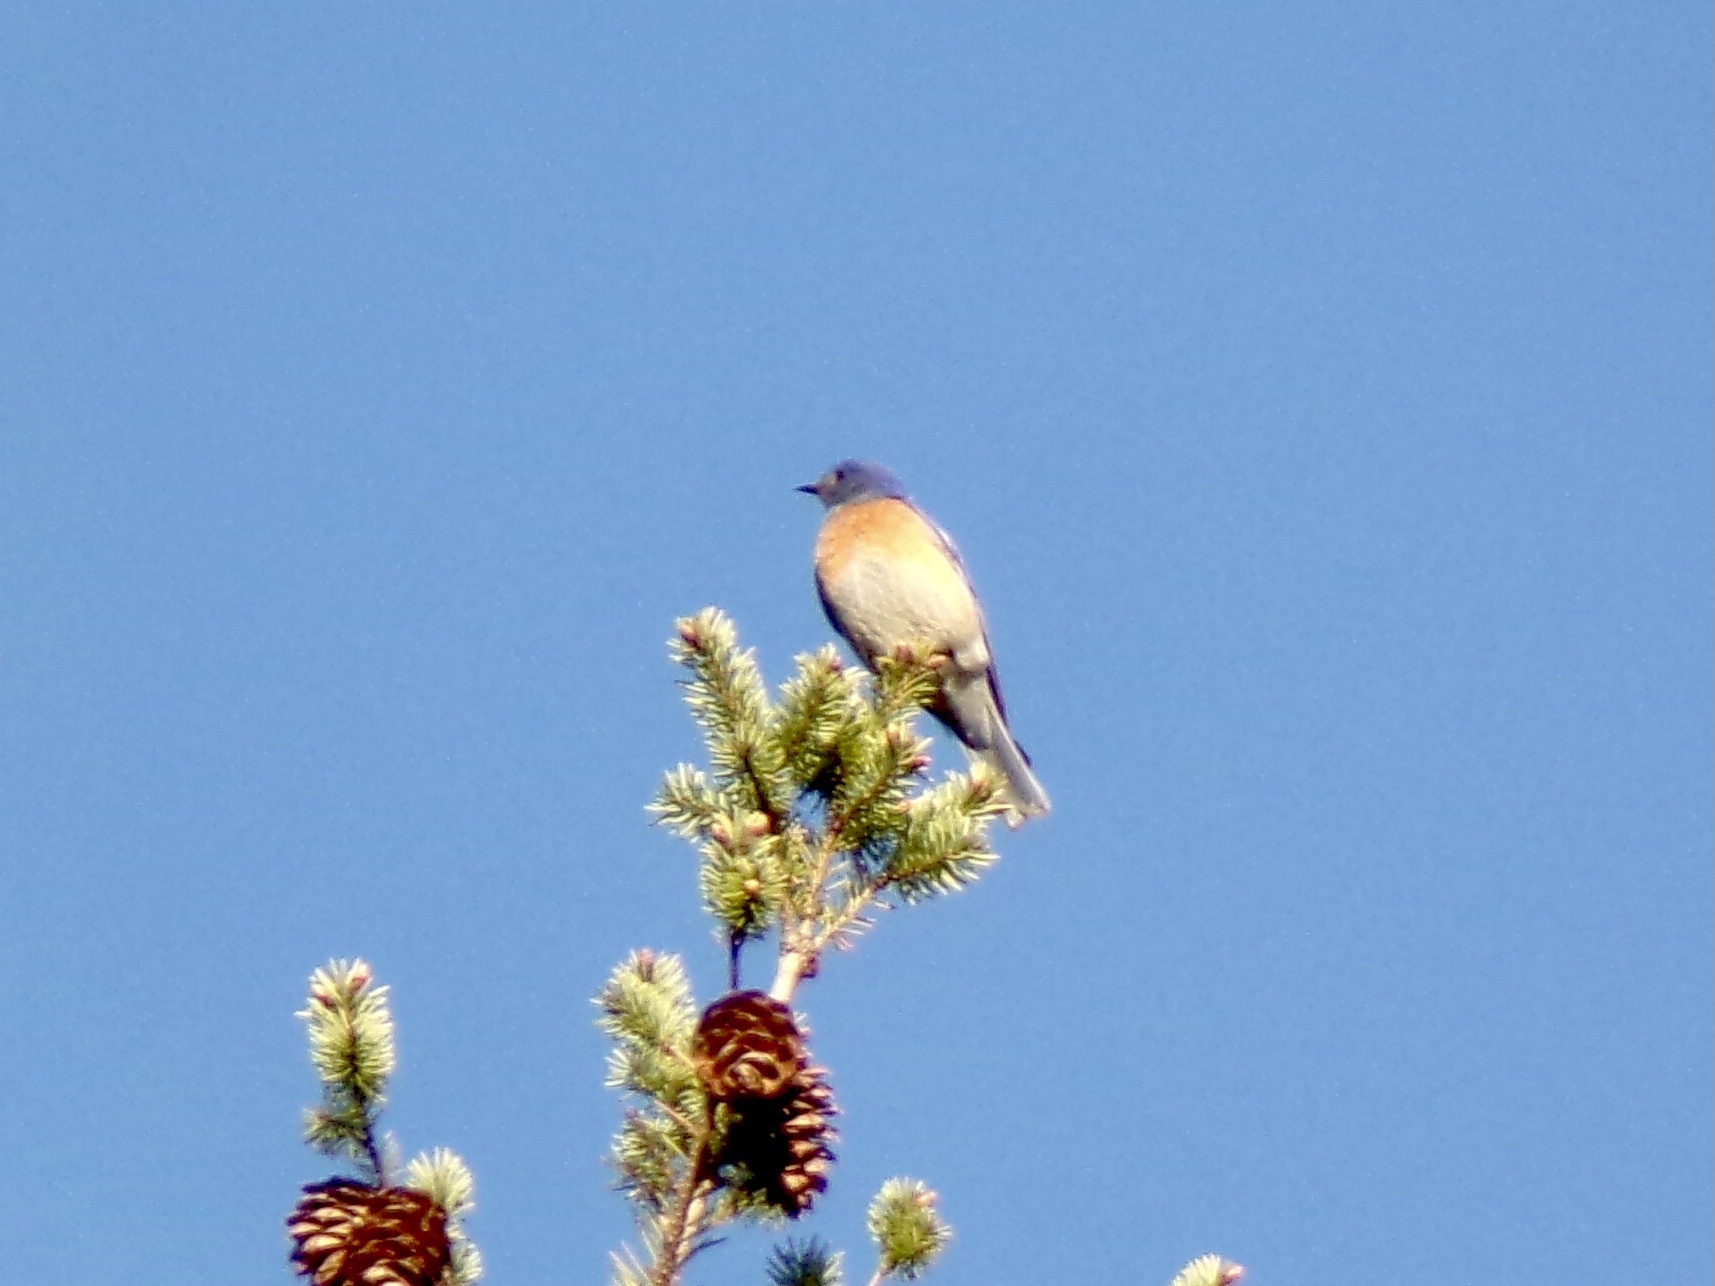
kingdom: Animalia
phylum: Chordata
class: Aves
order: Passeriformes
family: Turdidae
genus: Sialia
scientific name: Sialia mexicana
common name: Western bluebird
